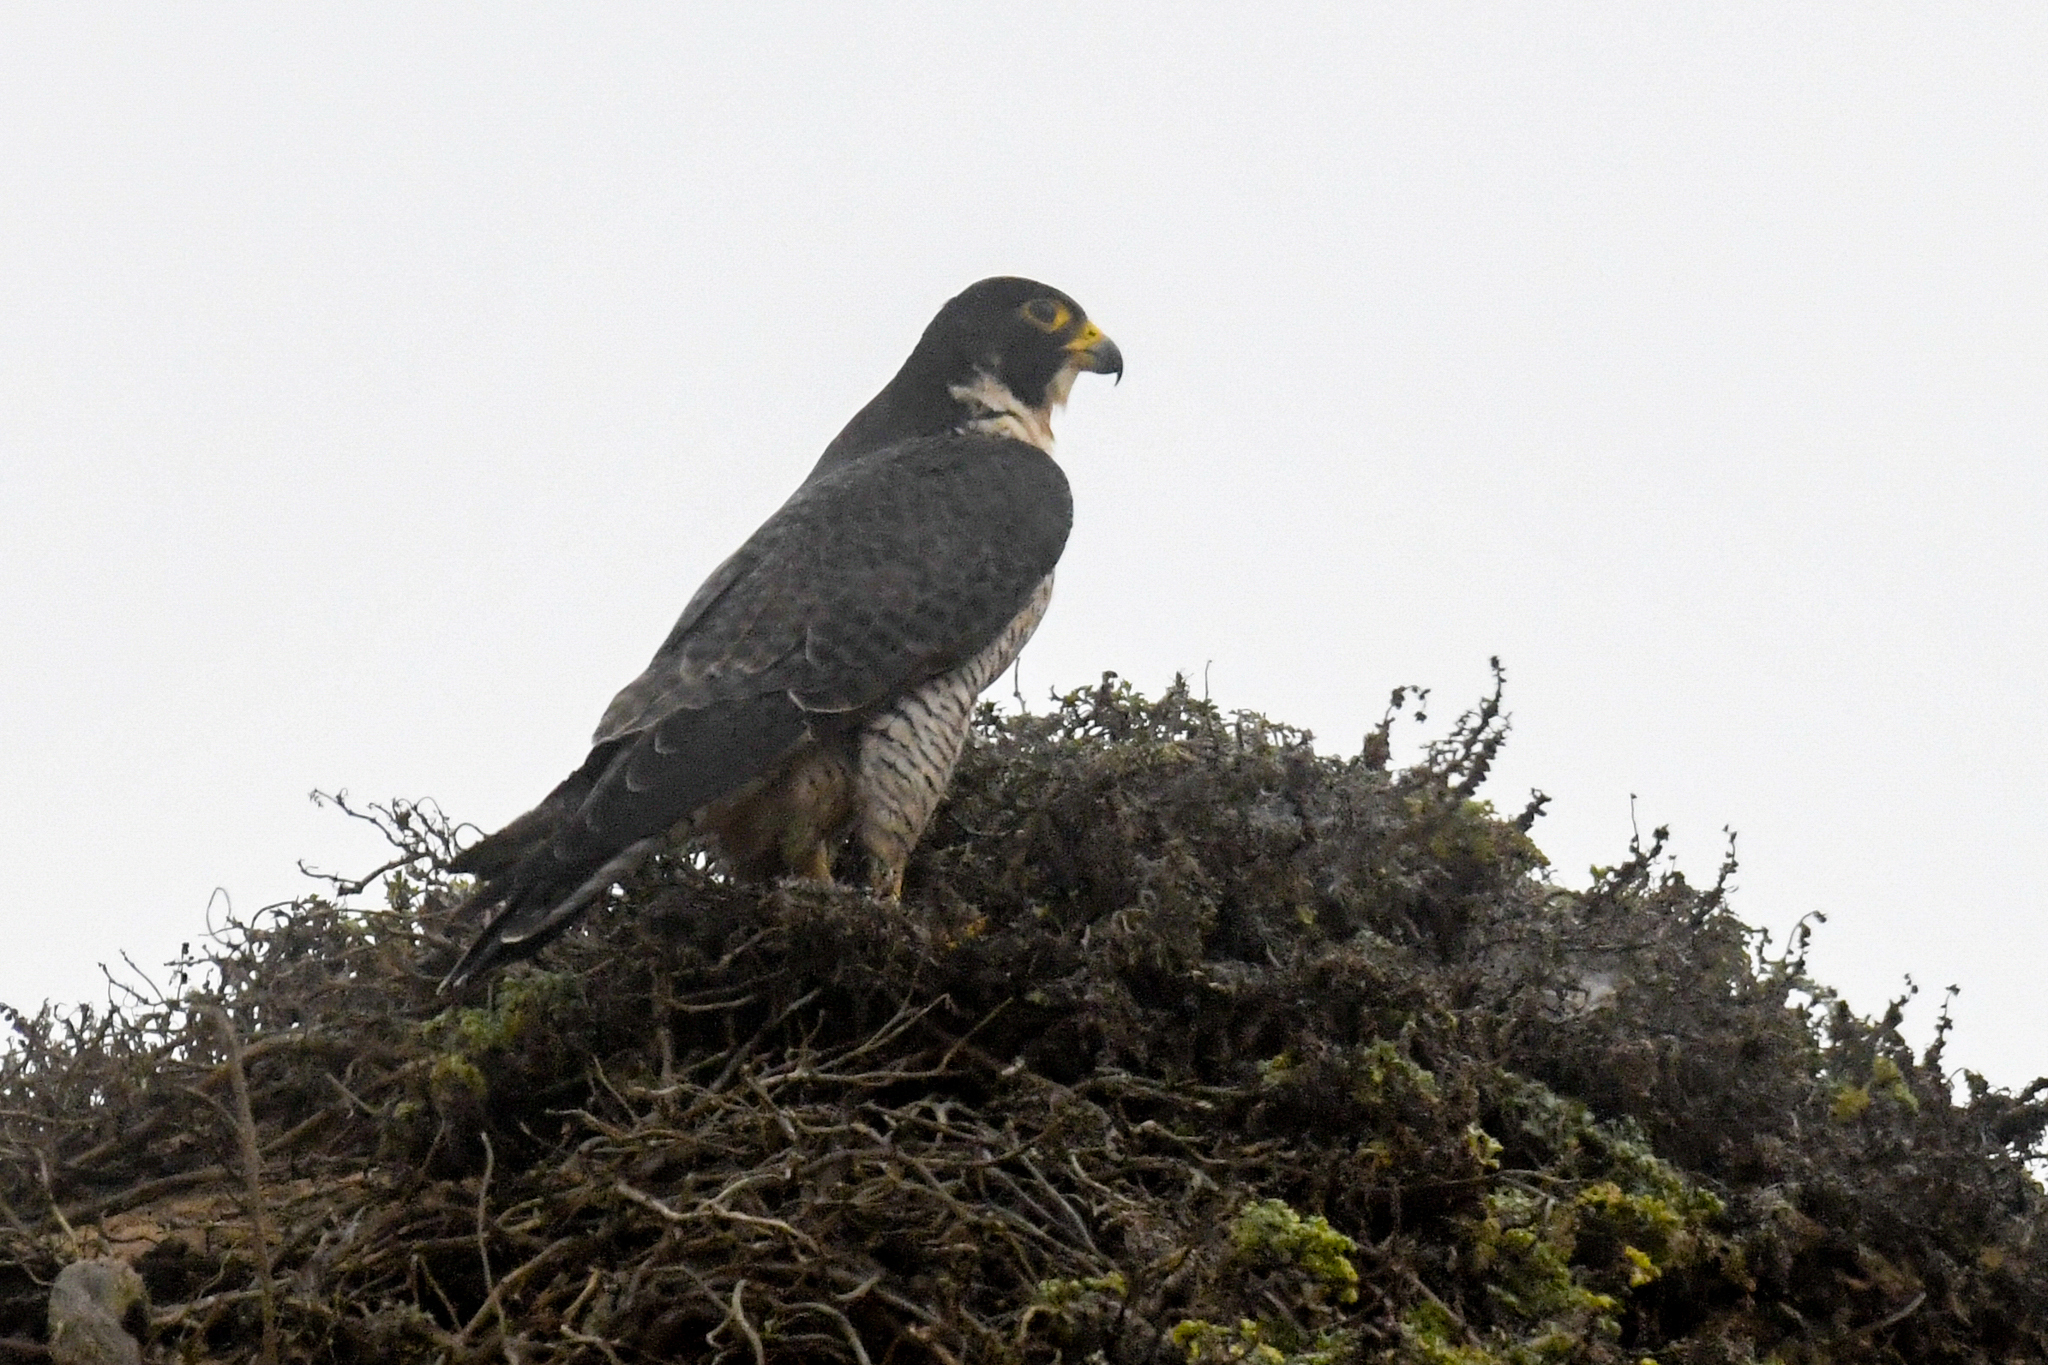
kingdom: Animalia
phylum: Chordata
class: Aves
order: Falconiformes
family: Falconidae
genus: Falco
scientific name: Falco peregrinus
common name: Peregrine falcon
